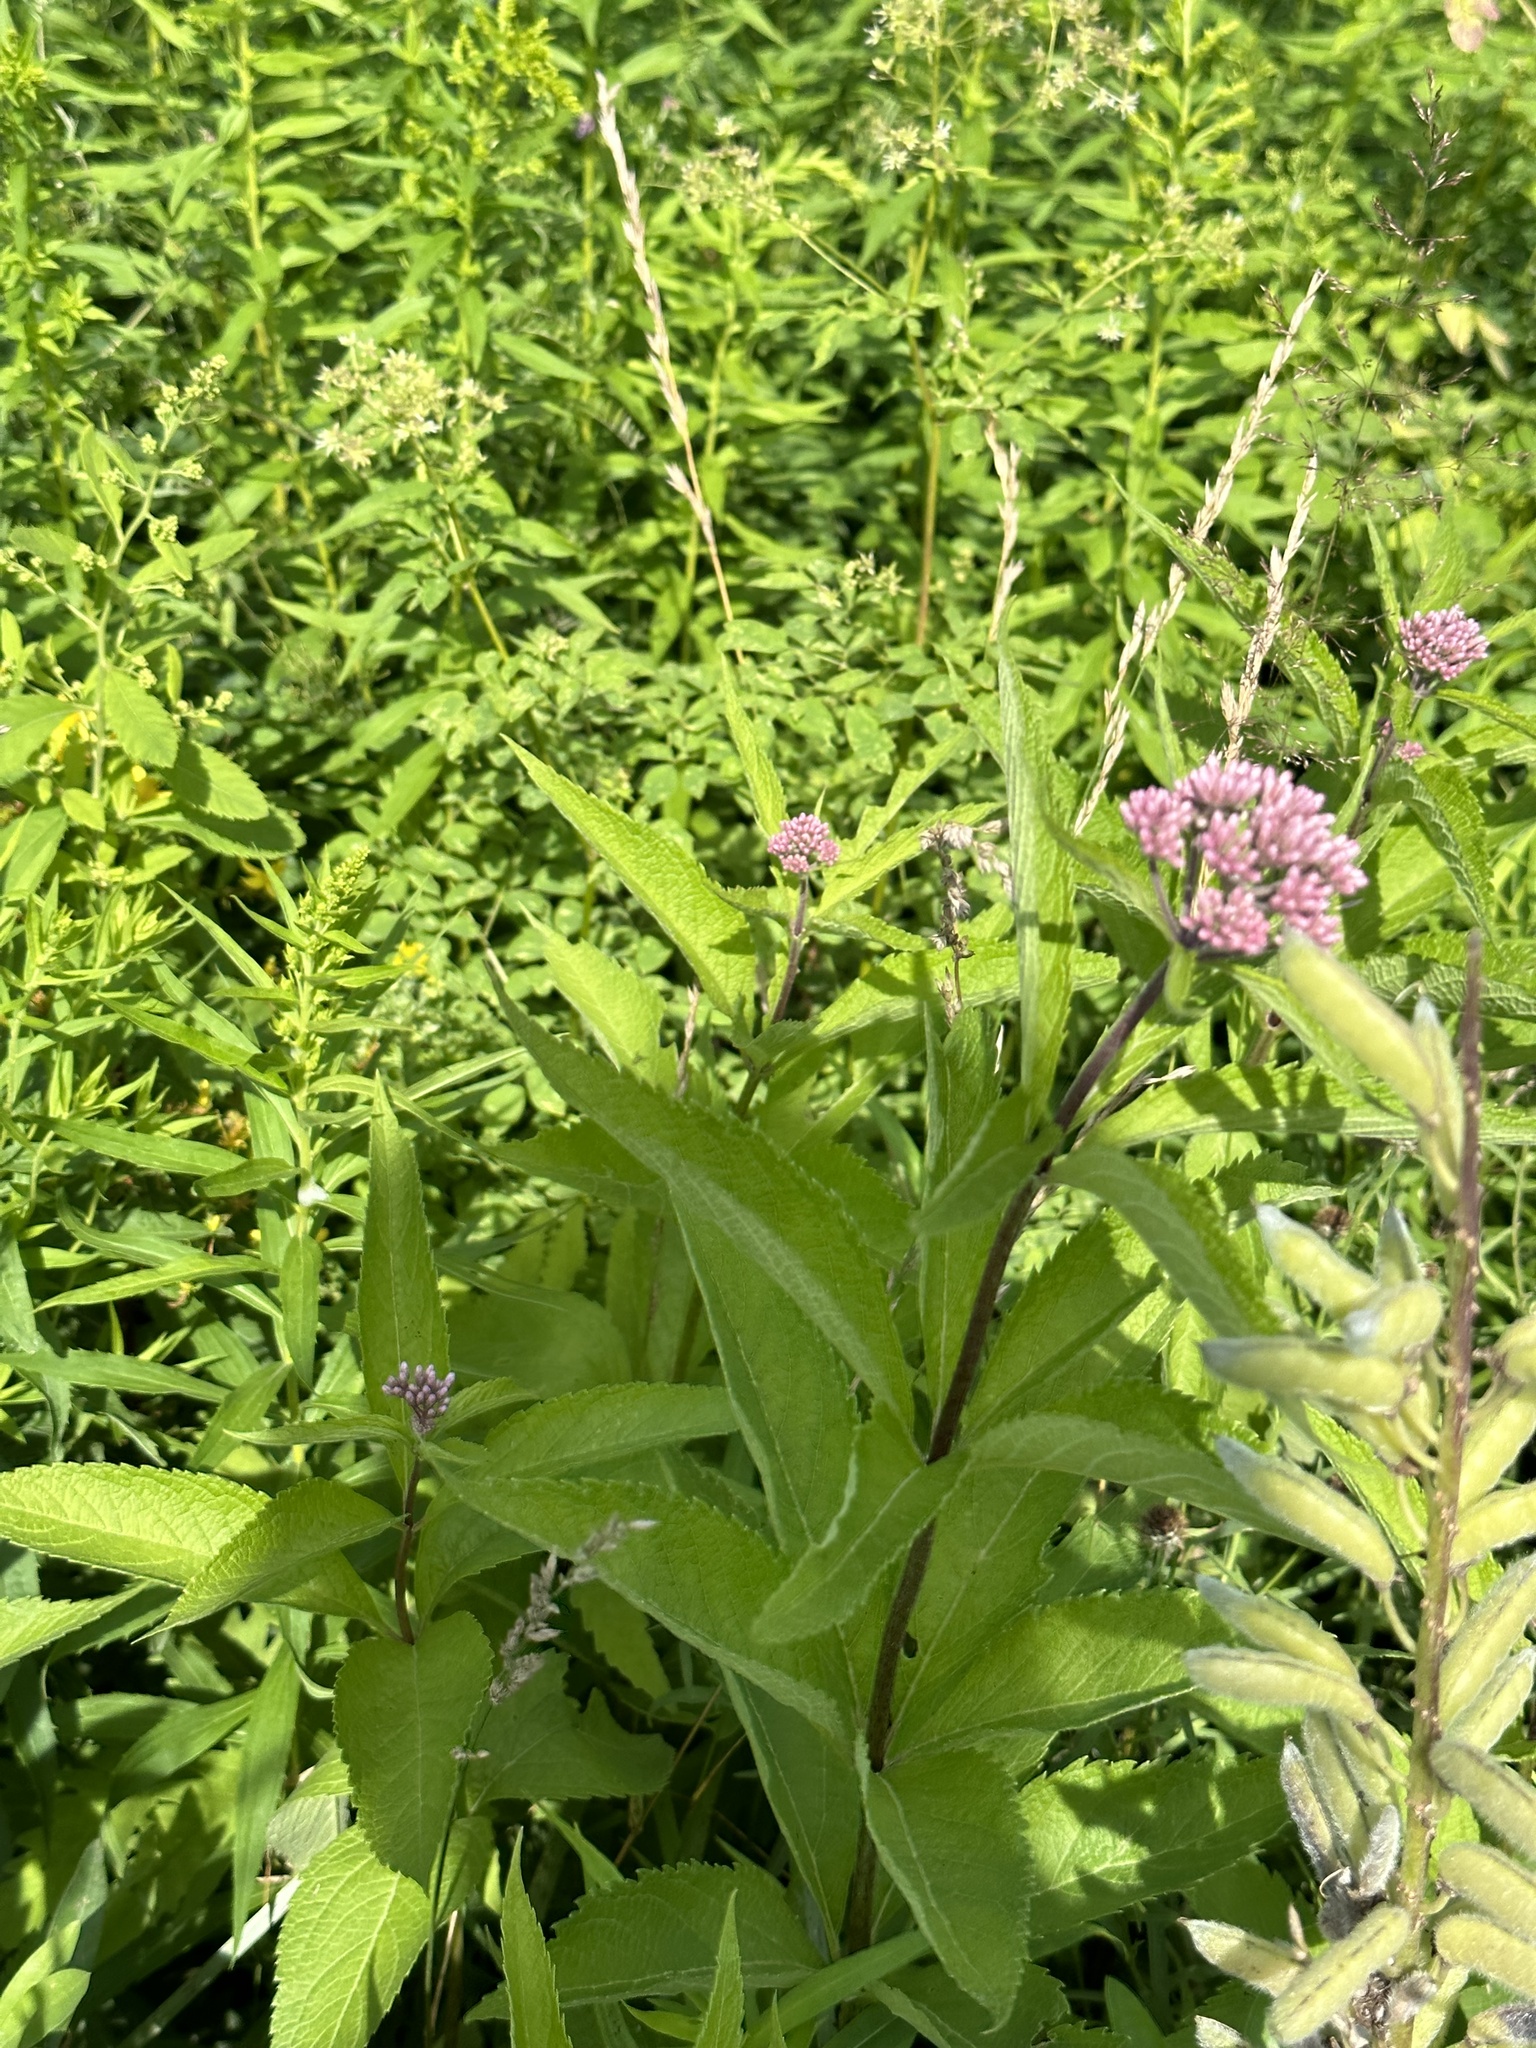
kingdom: Plantae
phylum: Tracheophyta
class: Magnoliopsida
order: Asterales
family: Asteraceae
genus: Eutrochium
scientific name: Eutrochium maculatum
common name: Spotted joe pye weed
